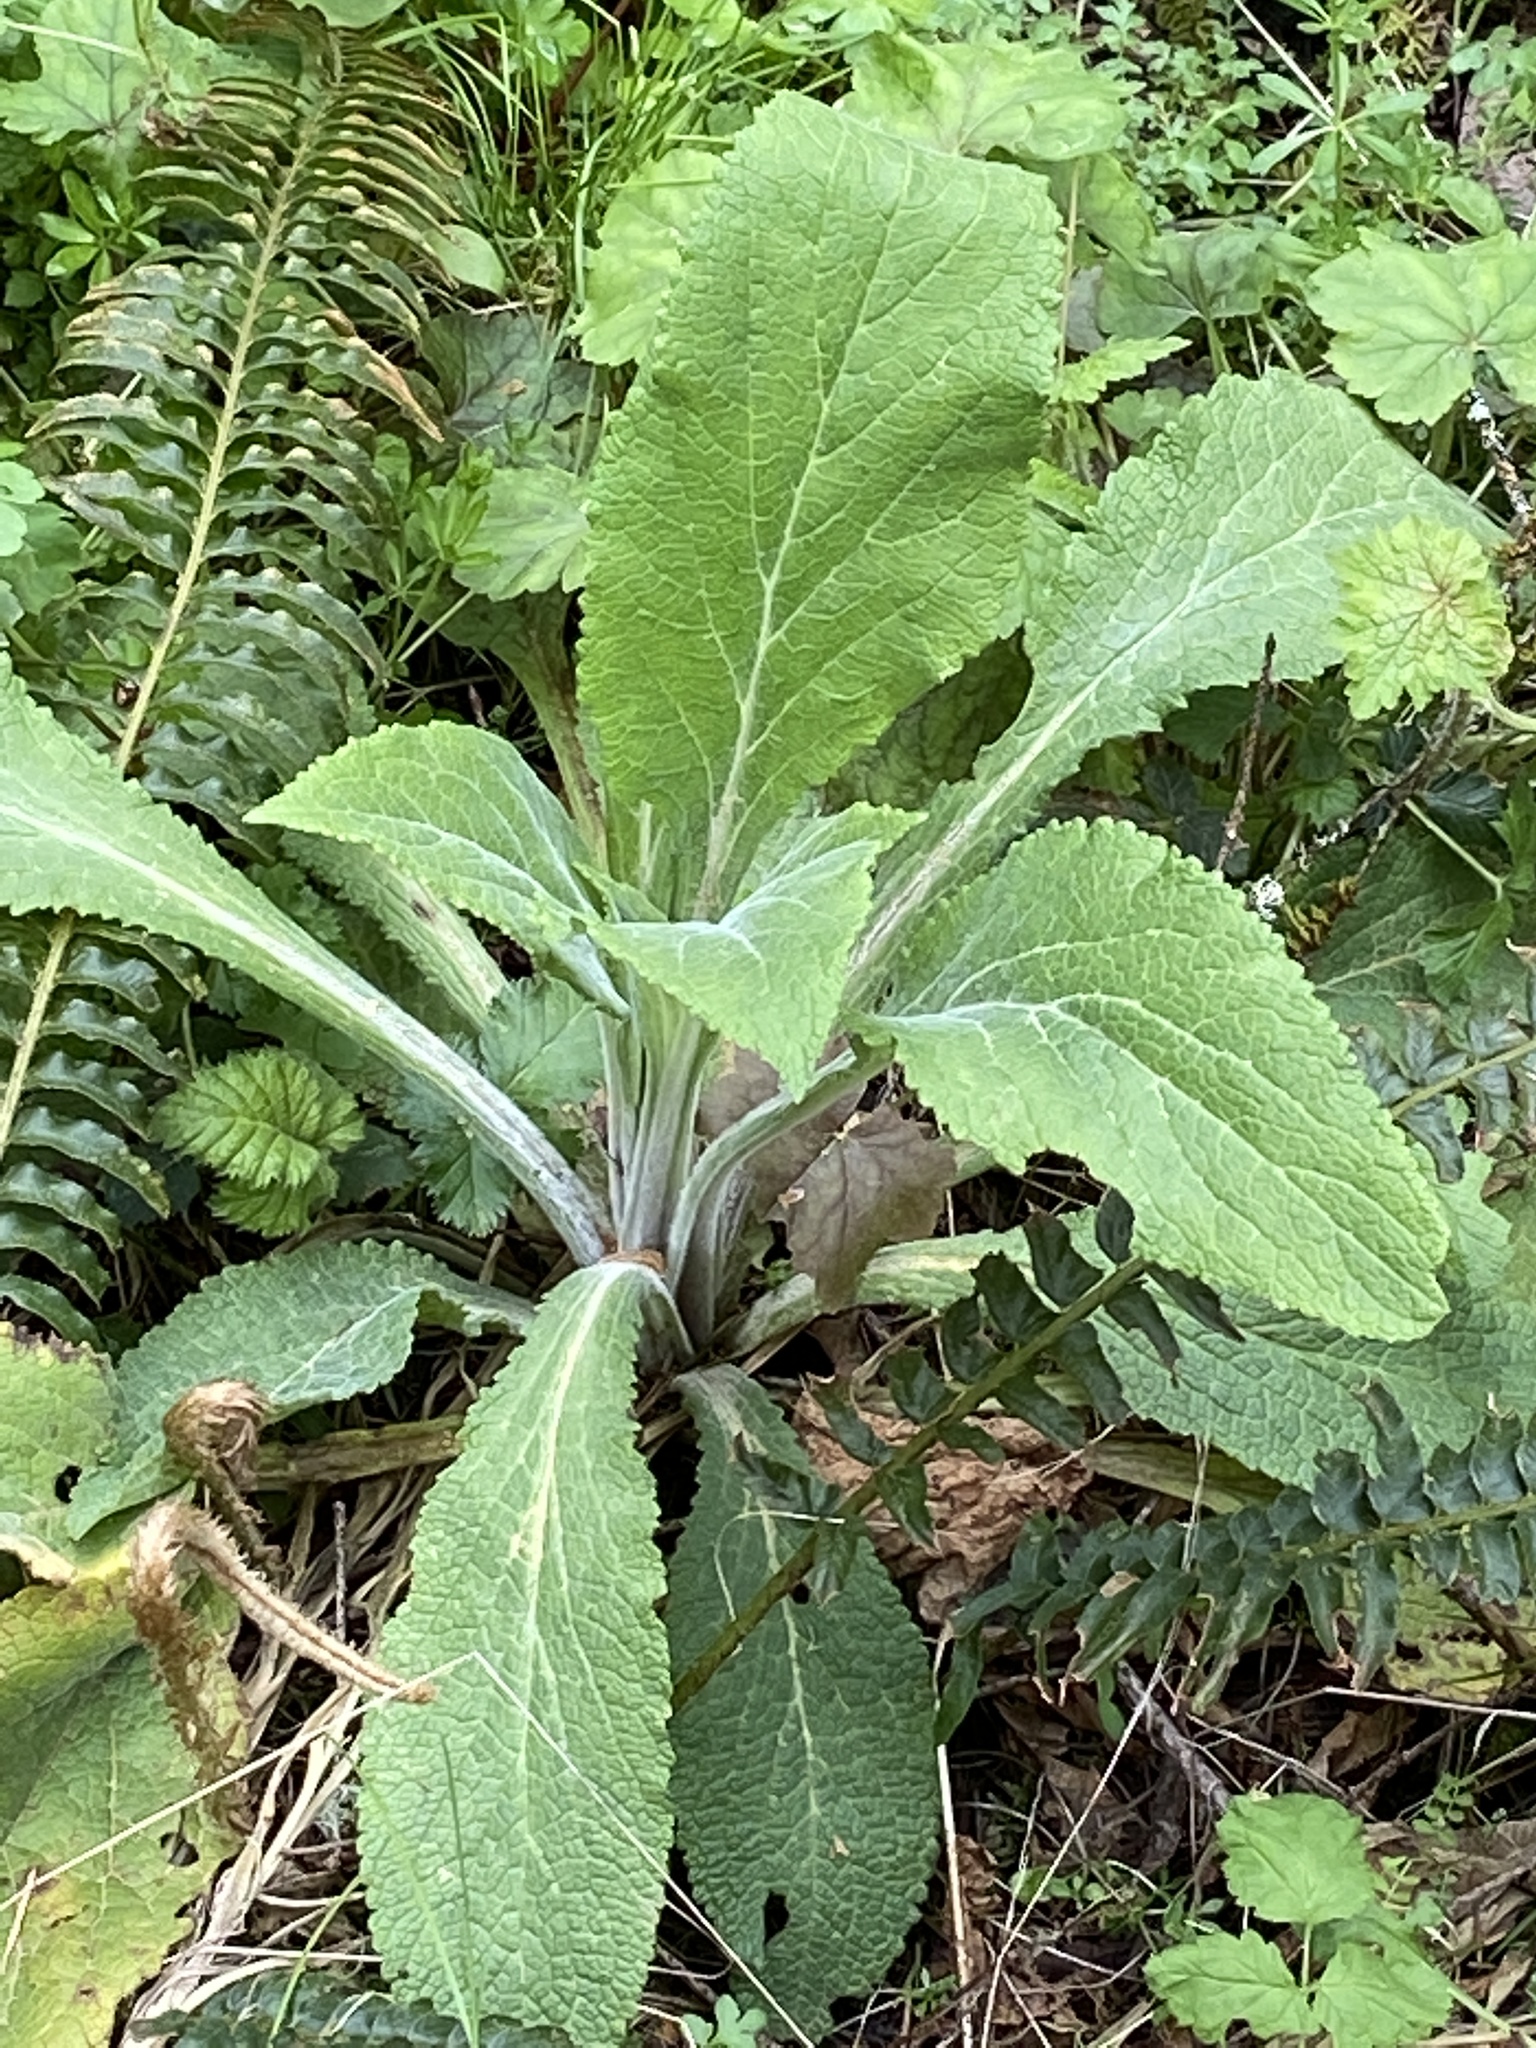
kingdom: Plantae
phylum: Tracheophyta
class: Magnoliopsida
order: Lamiales
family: Plantaginaceae
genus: Digitalis
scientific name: Digitalis purpurea
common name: Foxglove
